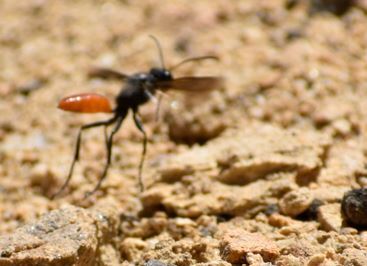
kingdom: Animalia
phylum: Arthropoda
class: Insecta
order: Hymenoptera
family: Sphecidae
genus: Sphex
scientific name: Sphex lucae
